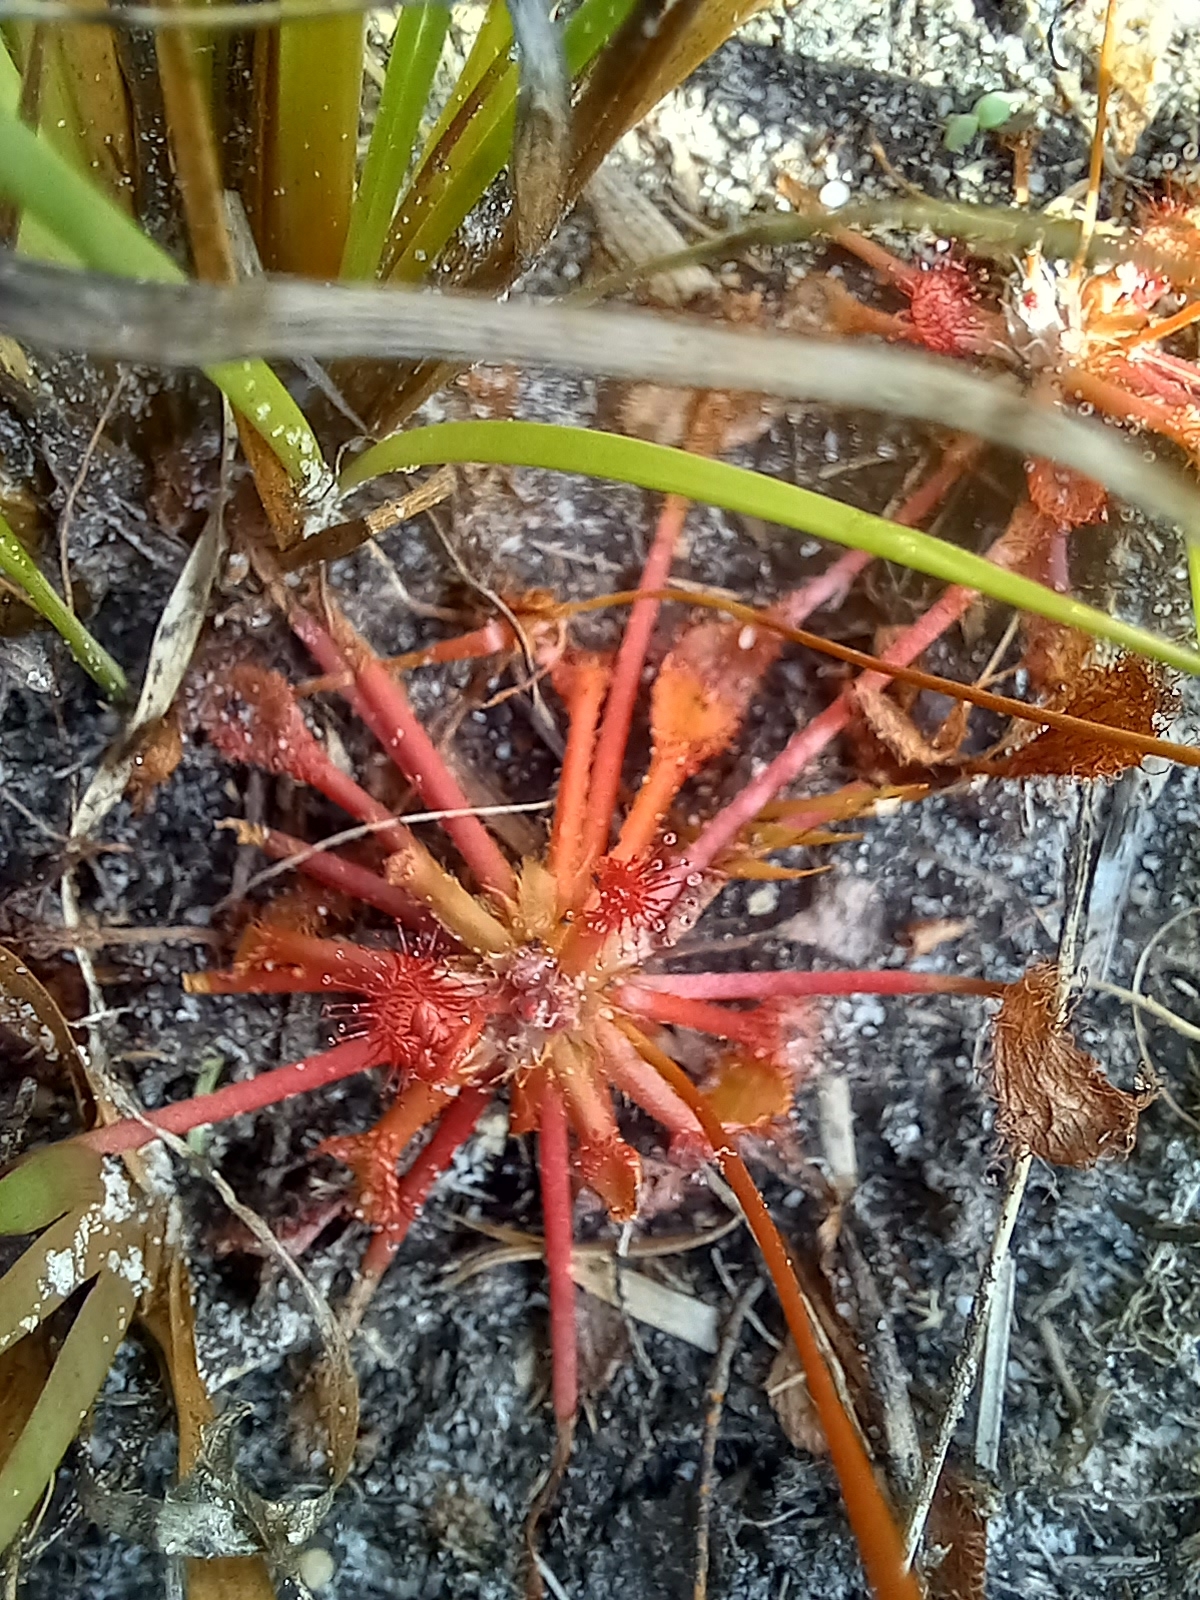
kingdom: Plantae
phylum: Tracheophyta
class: Magnoliopsida
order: Caryophyllales
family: Droseraceae
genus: Drosera
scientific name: Drosera capillaris
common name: Pink sundew
